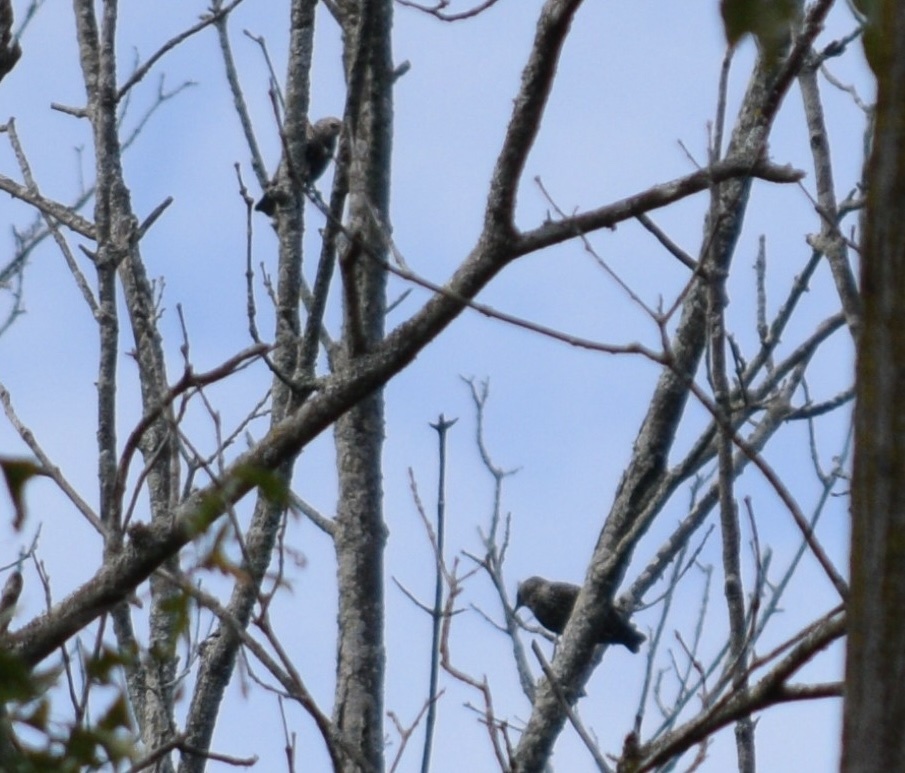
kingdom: Animalia
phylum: Chordata
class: Aves
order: Passeriformes
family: Sturnidae
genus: Sturnus
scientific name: Sturnus vulgaris
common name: Common starling
